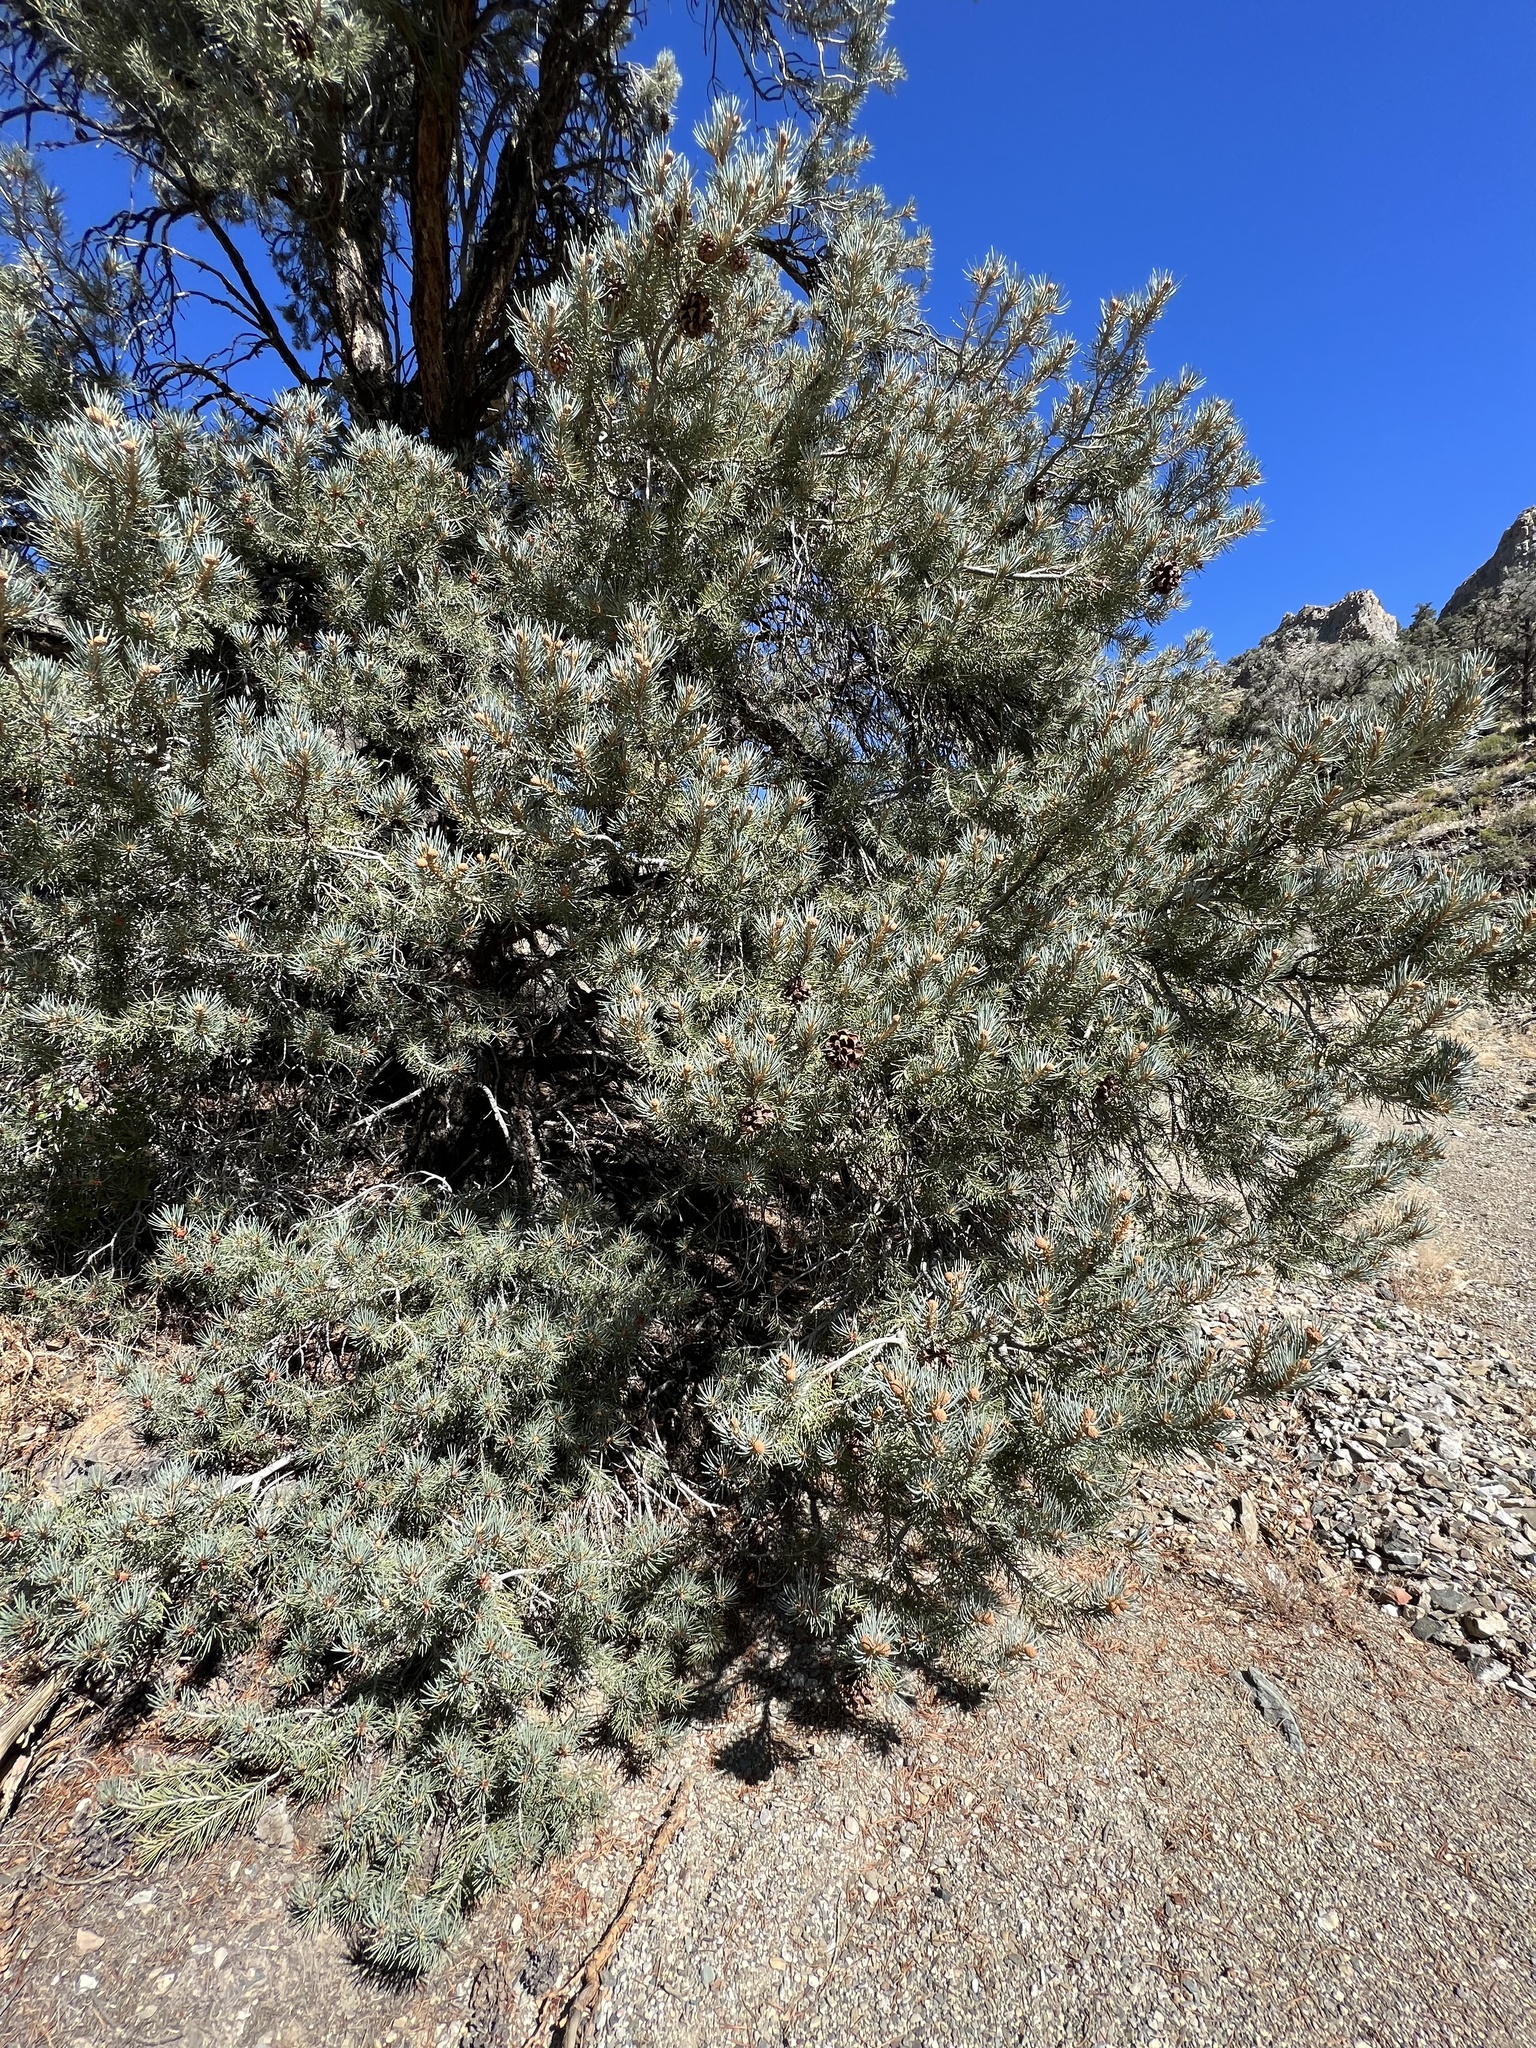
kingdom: Plantae
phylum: Tracheophyta
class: Pinopsida
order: Pinales
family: Pinaceae
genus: Pinus
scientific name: Pinus monophylla
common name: One-leaved nut pine
